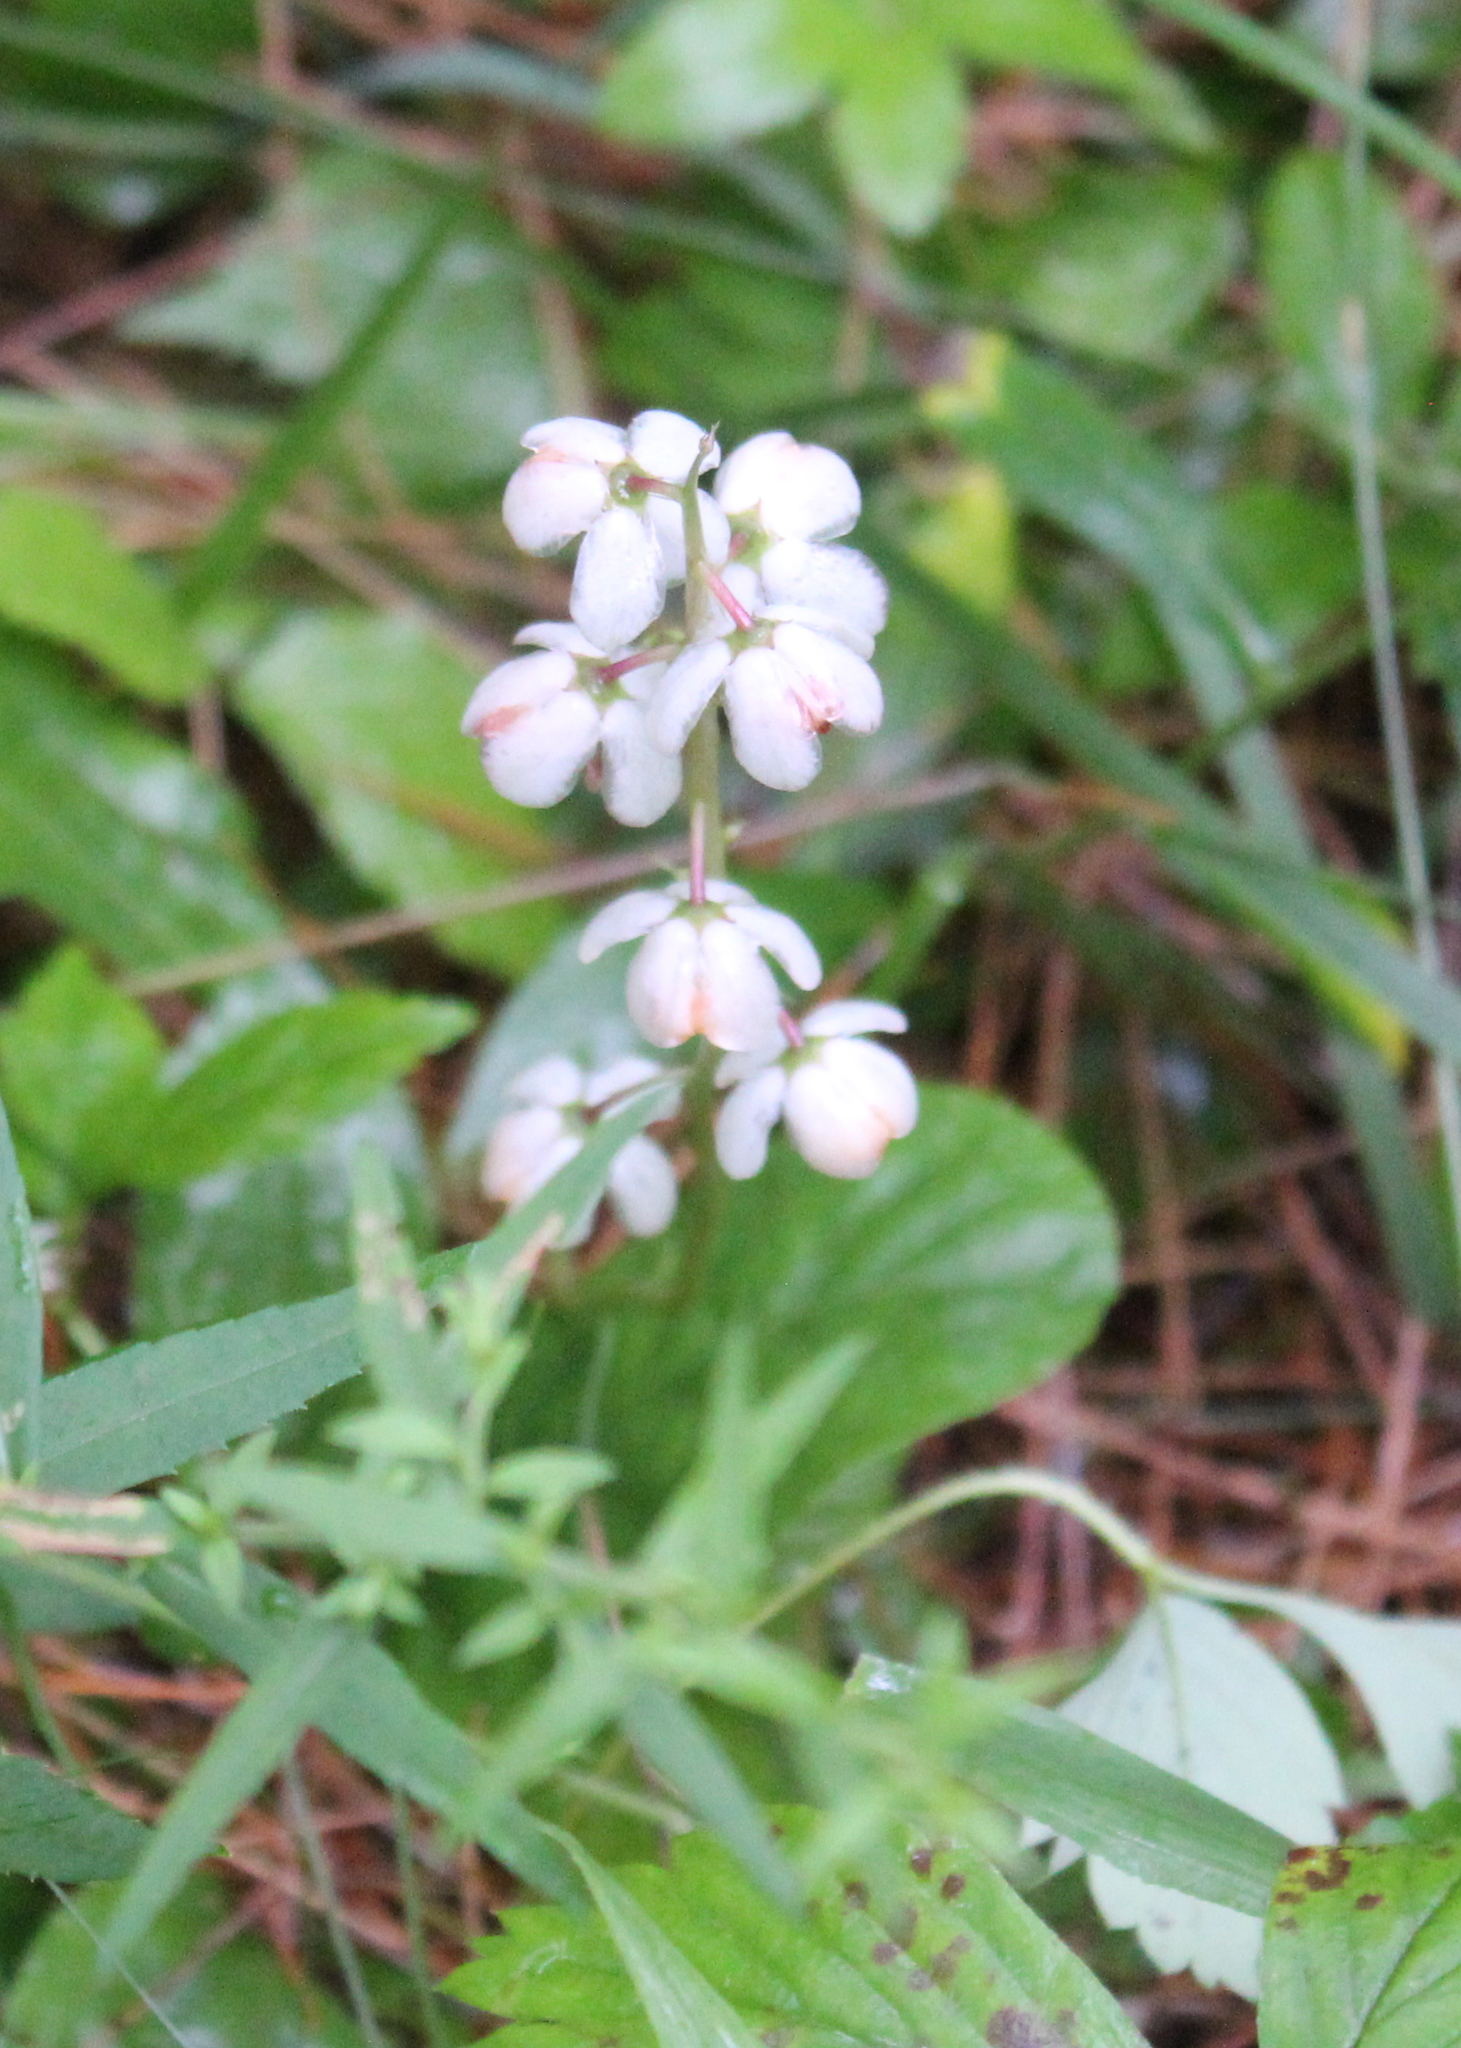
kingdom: Plantae
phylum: Tracheophyta
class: Magnoliopsida
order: Ericales
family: Ericaceae
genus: Pyrola
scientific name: Pyrola elliptica
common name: Shinleaf
